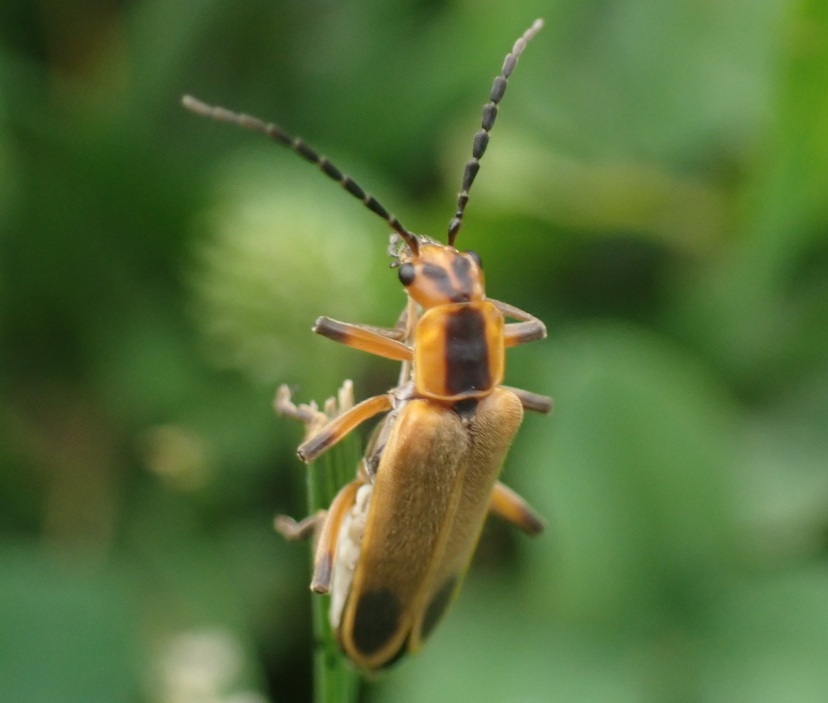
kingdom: Animalia
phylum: Arthropoda
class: Insecta
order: Coleoptera
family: Cantharidae
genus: Chauliognathus
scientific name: Chauliognathus marginatus
